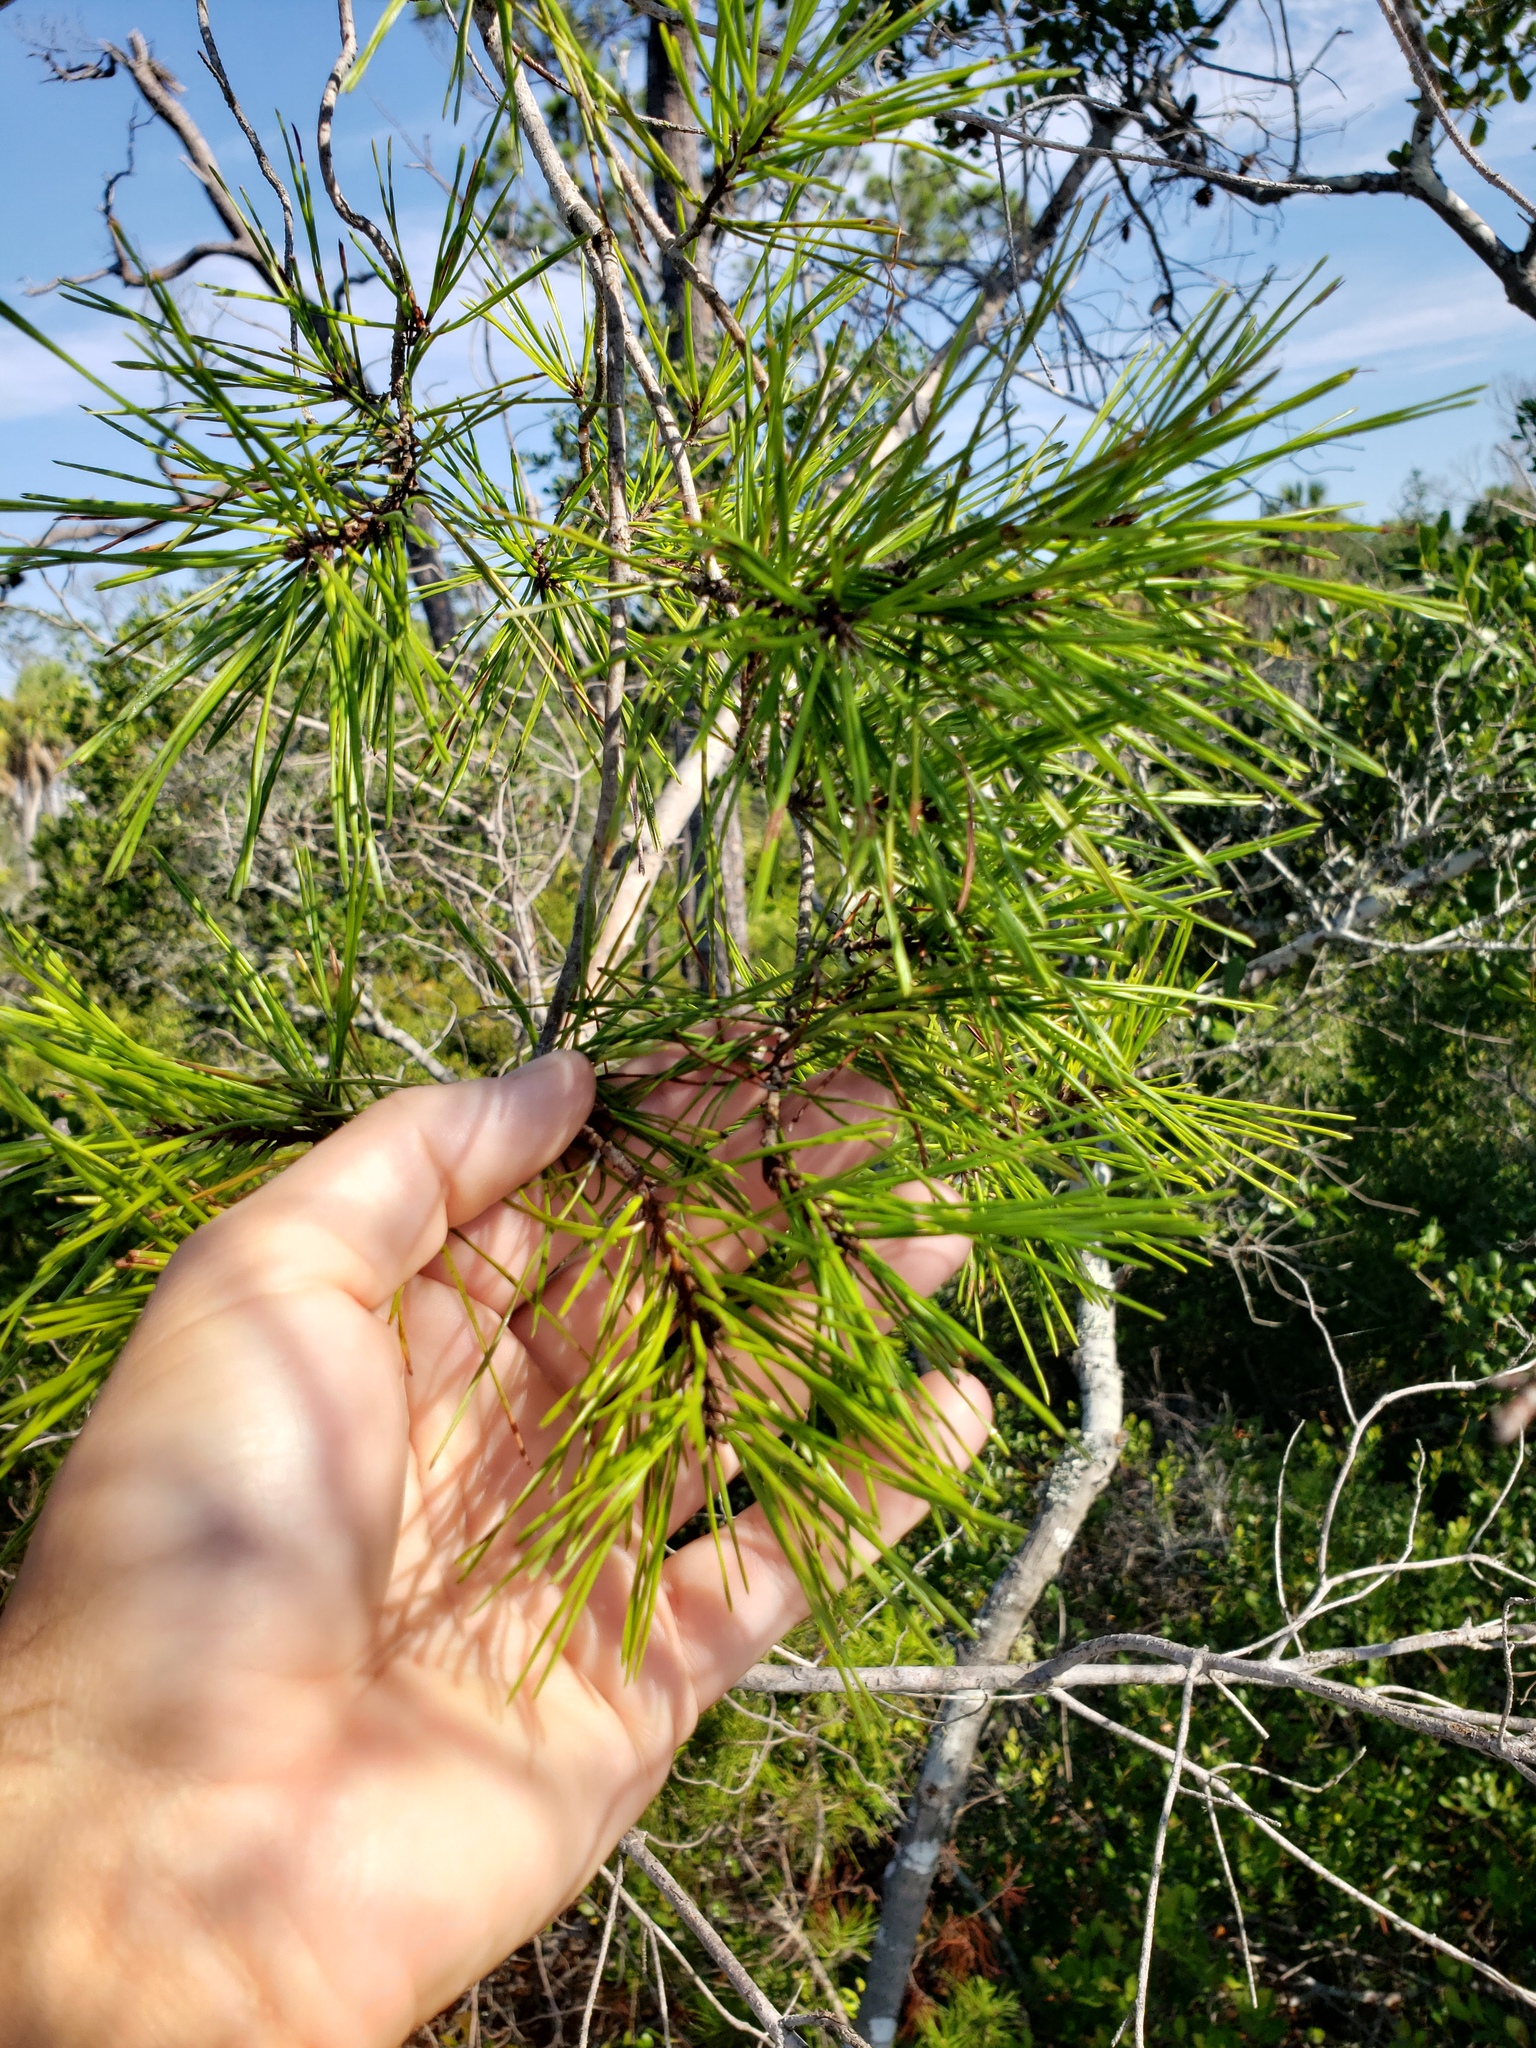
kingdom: Plantae
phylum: Tracheophyta
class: Pinopsida
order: Pinales
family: Pinaceae
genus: Pinus
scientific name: Pinus clausa
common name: Sand pine
